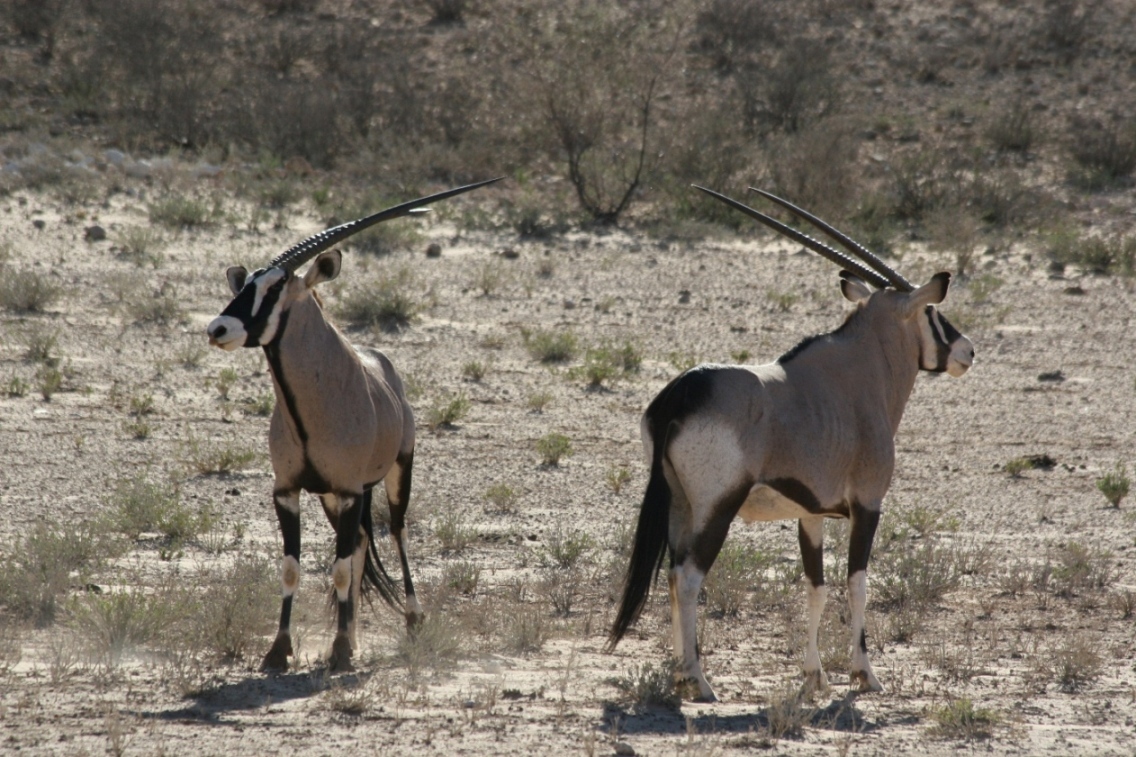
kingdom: Animalia
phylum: Chordata
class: Mammalia
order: Artiodactyla
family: Bovidae
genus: Oryx
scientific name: Oryx gazella
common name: Gemsbok
